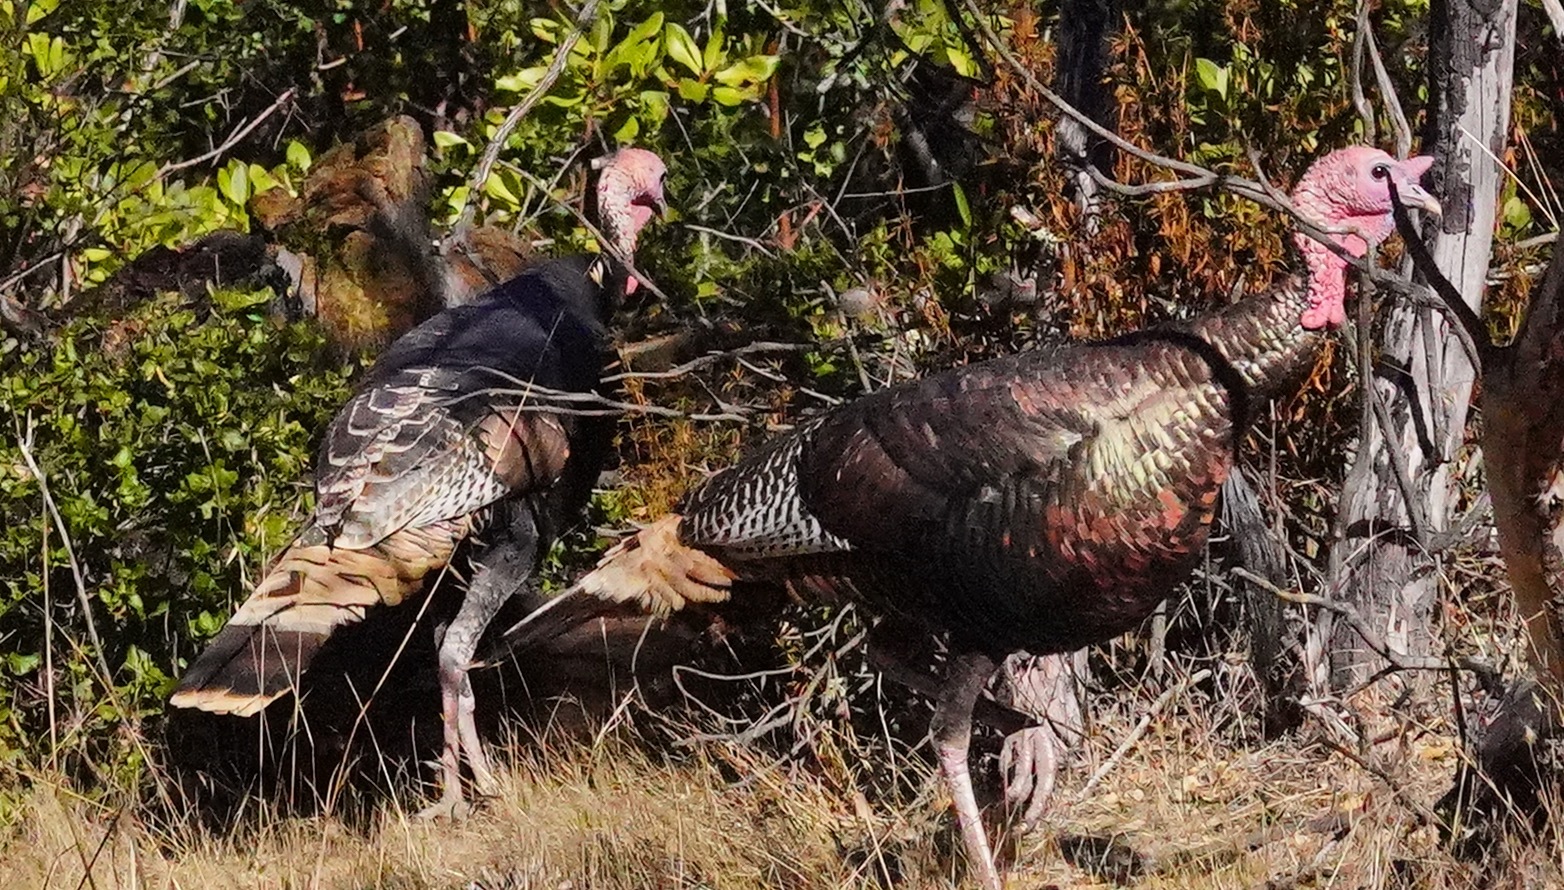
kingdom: Animalia
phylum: Chordata
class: Aves
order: Galliformes
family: Phasianidae
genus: Meleagris
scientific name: Meleagris gallopavo
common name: Wild turkey
